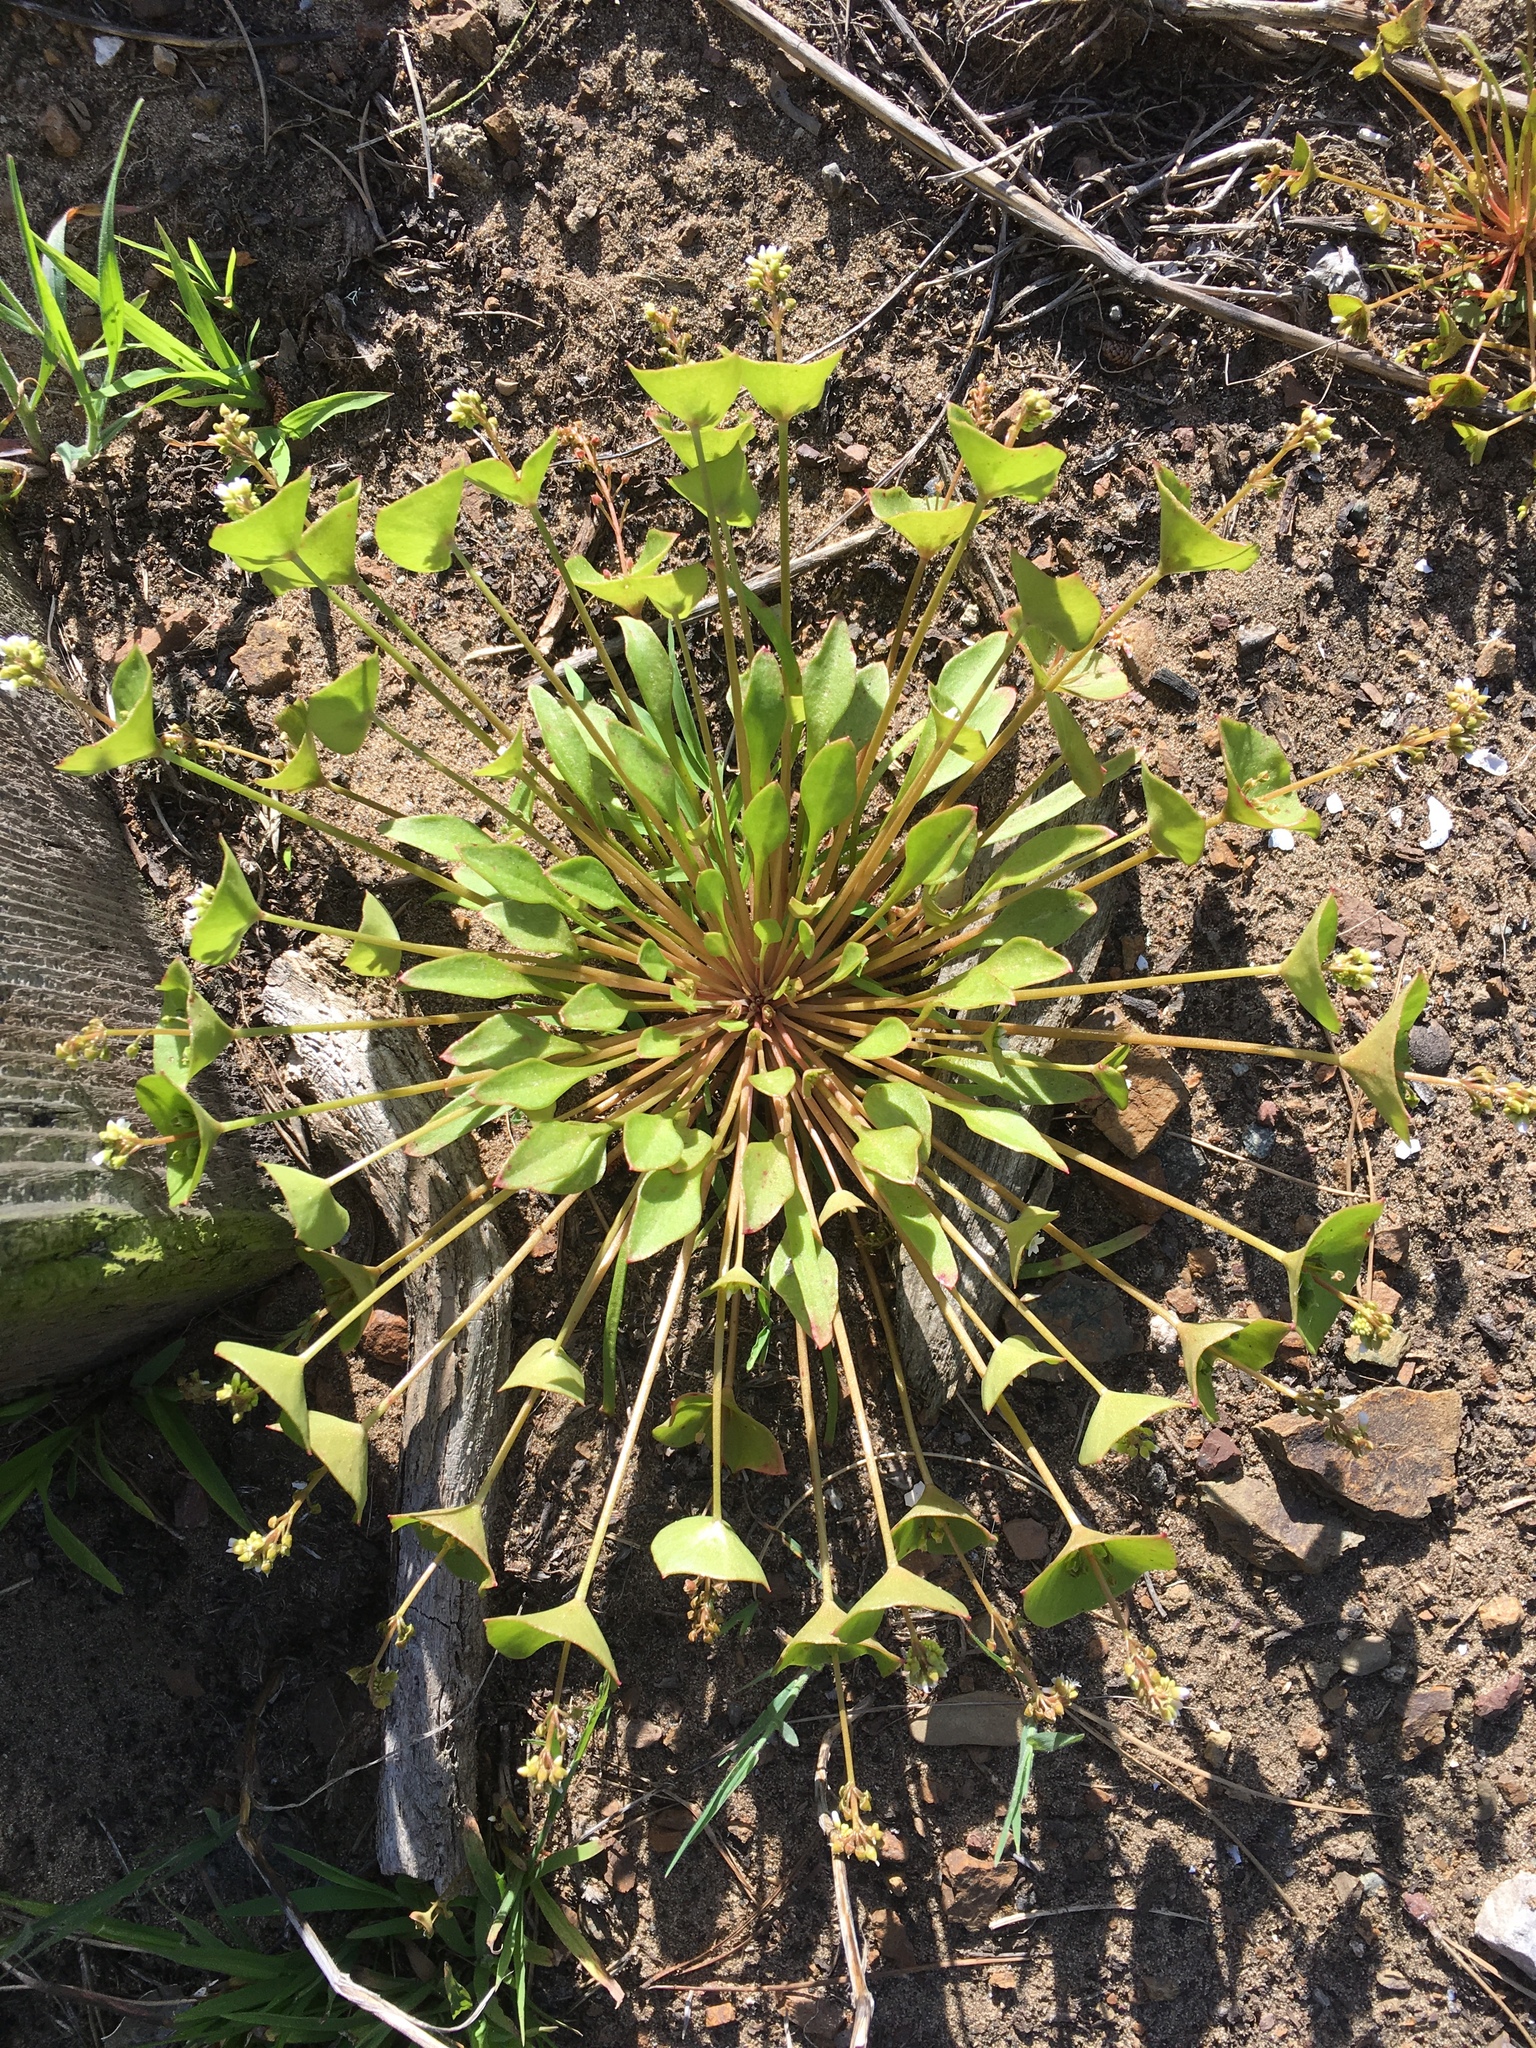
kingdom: Plantae
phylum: Tracheophyta
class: Magnoliopsida
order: Caryophyllales
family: Montiaceae
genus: Claytonia
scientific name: Claytonia perfoliata
